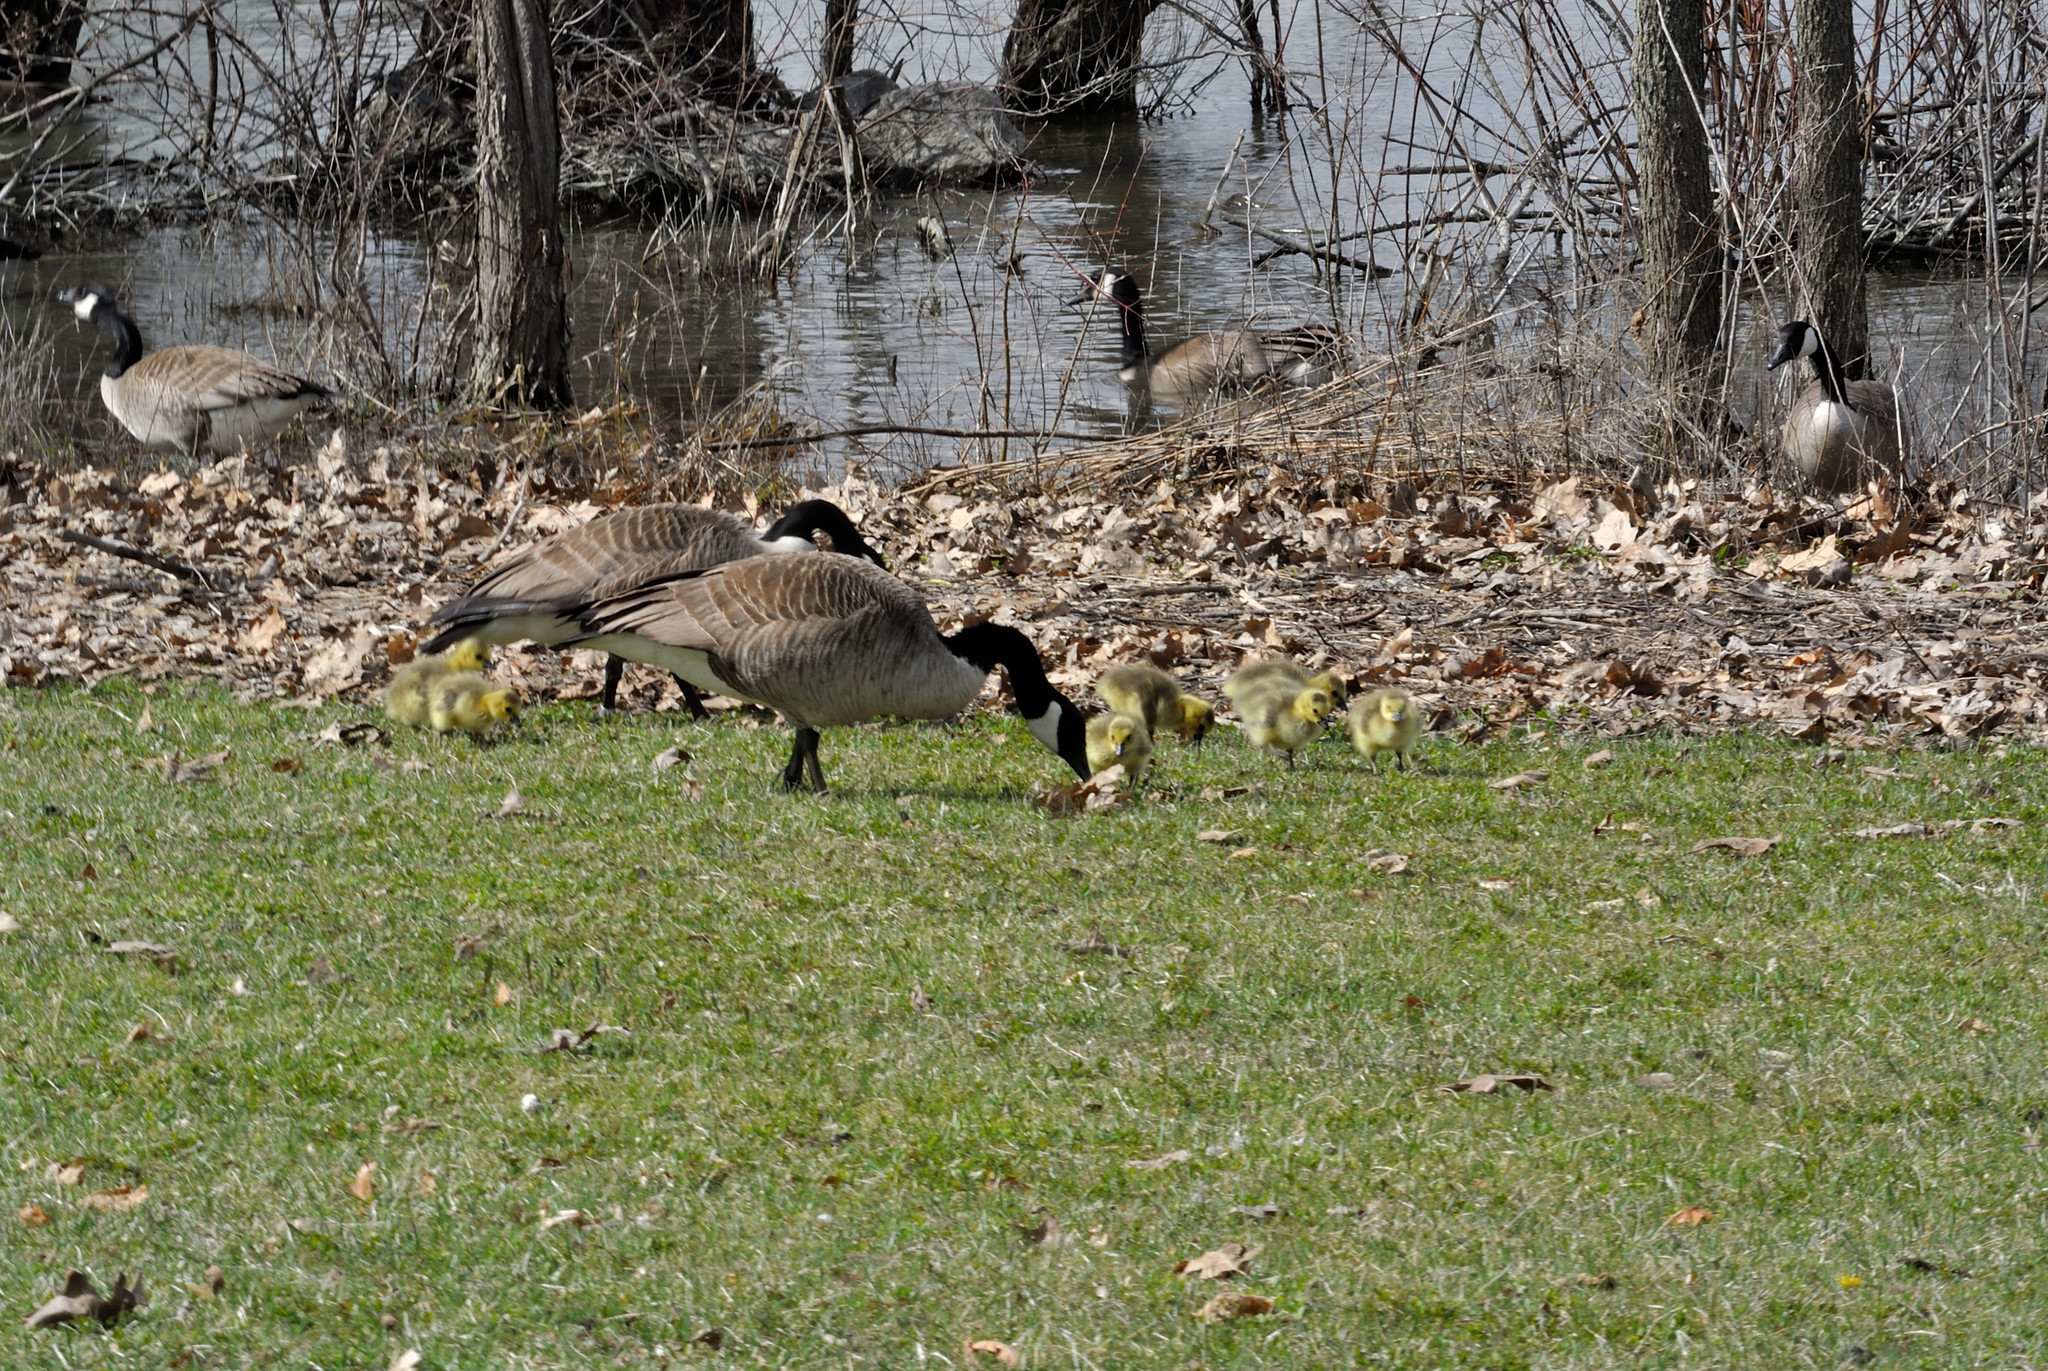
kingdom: Animalia
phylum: Chordata
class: Aves
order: Anseriformes
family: Anatidae
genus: Branta
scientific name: Branta canadensis
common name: Canada goose
